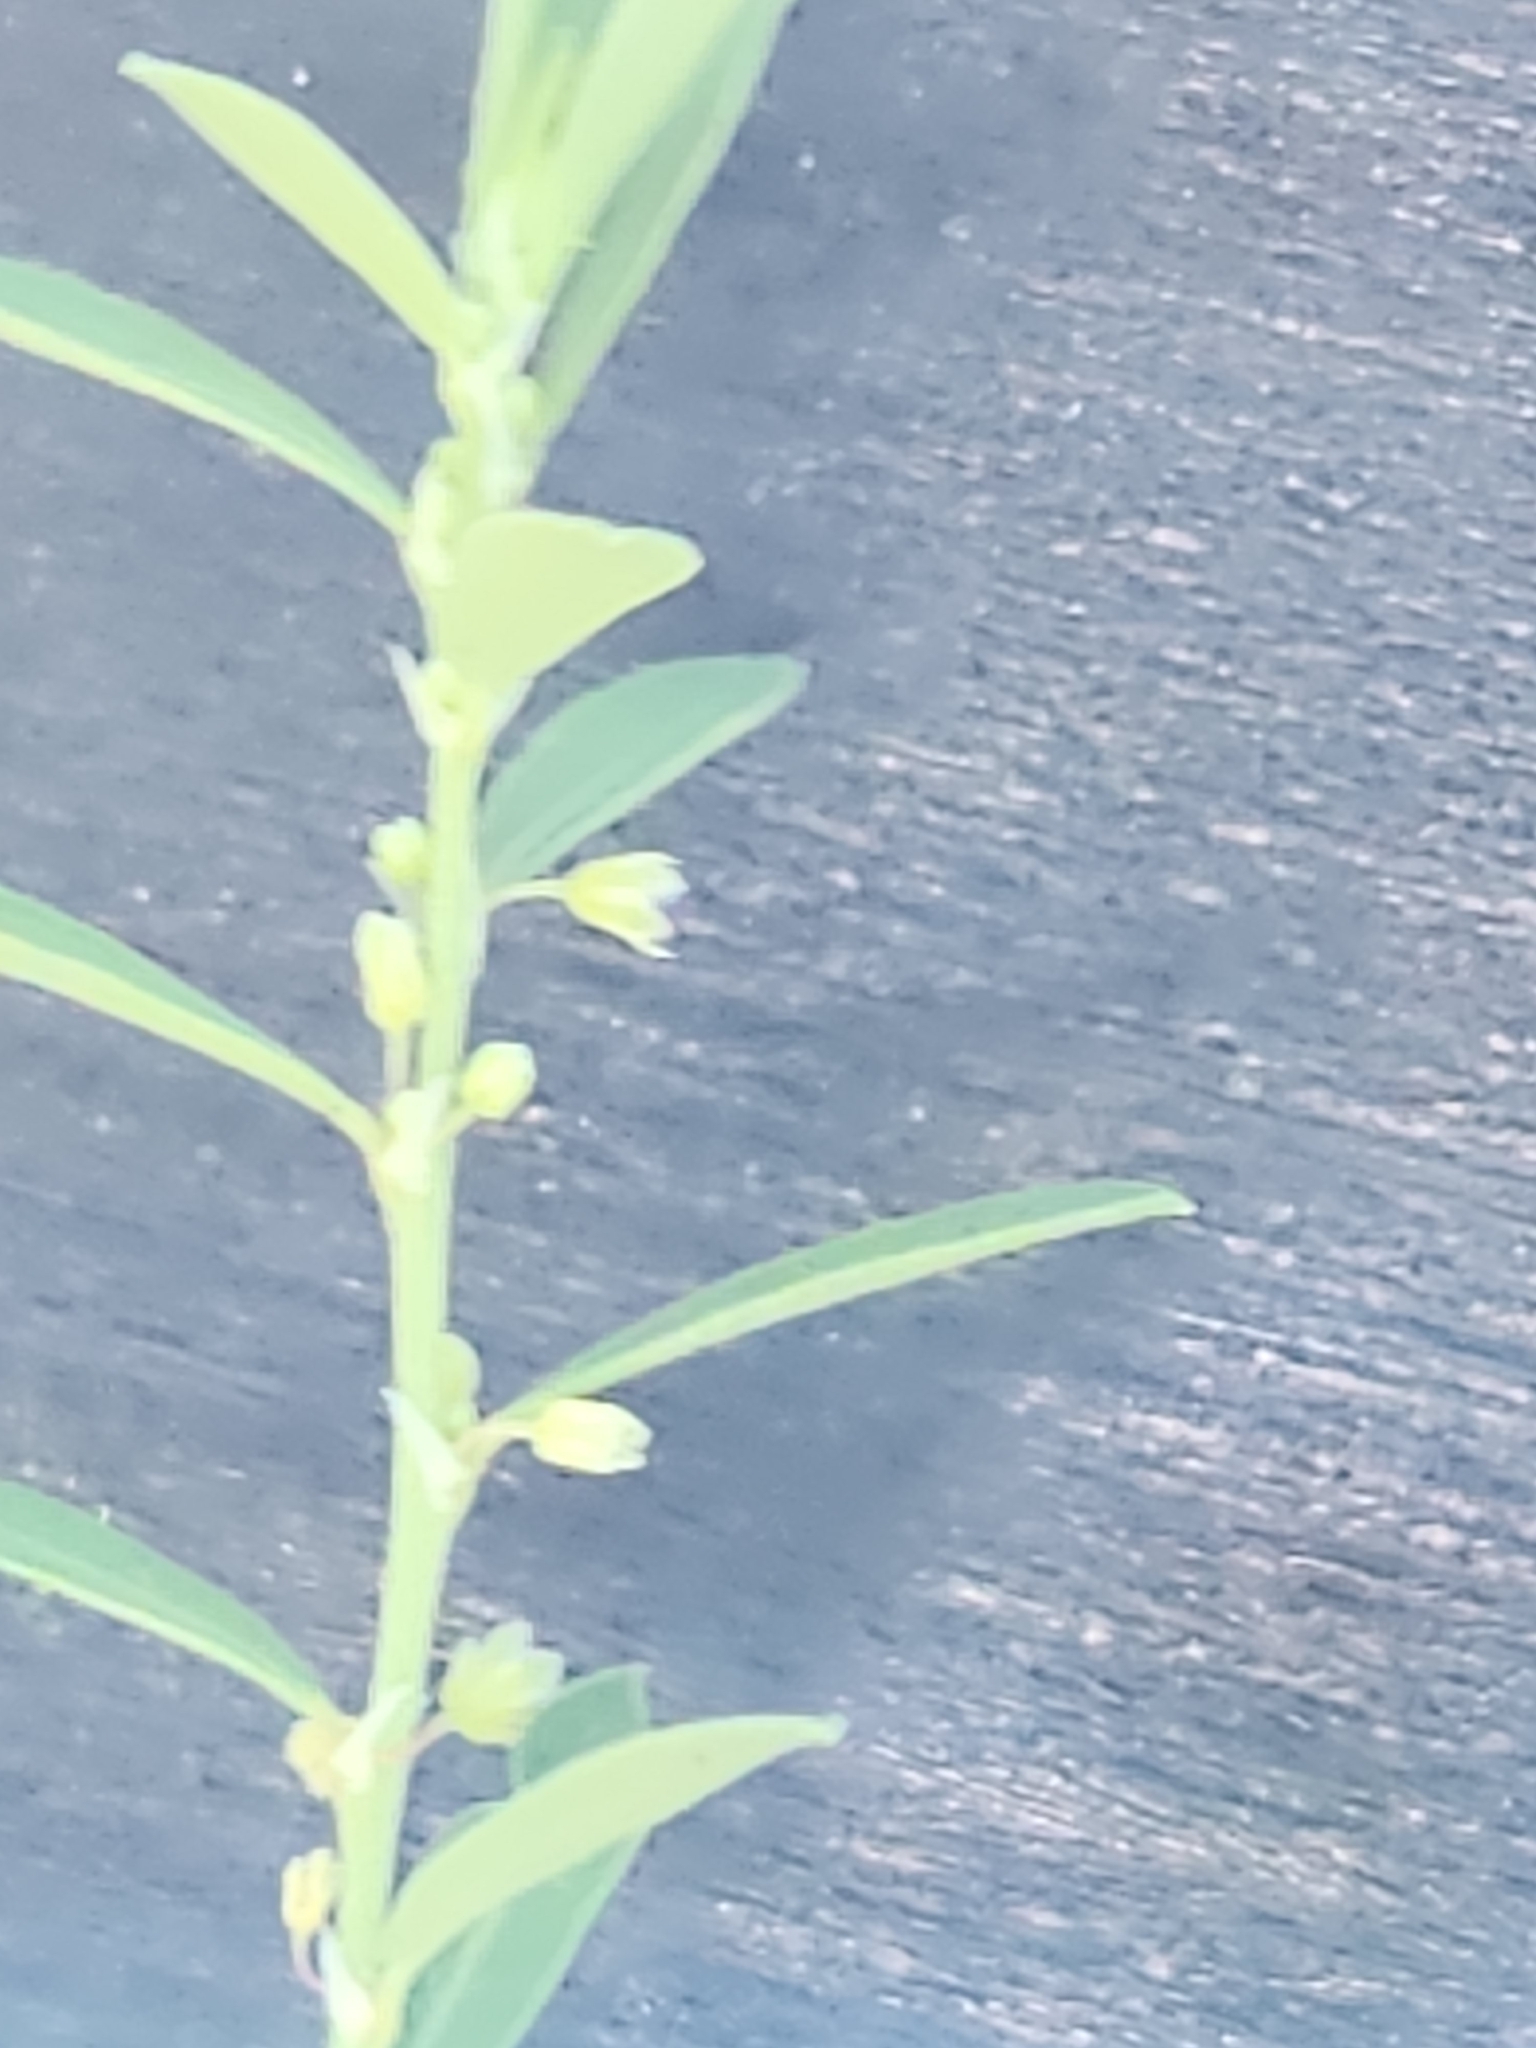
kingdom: Plantae
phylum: Tracheophyta
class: Magnoliopsida
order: Malpighiales
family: Phyllanthaceae
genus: Phyllanthus
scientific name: Phyllanthus polygonoides
